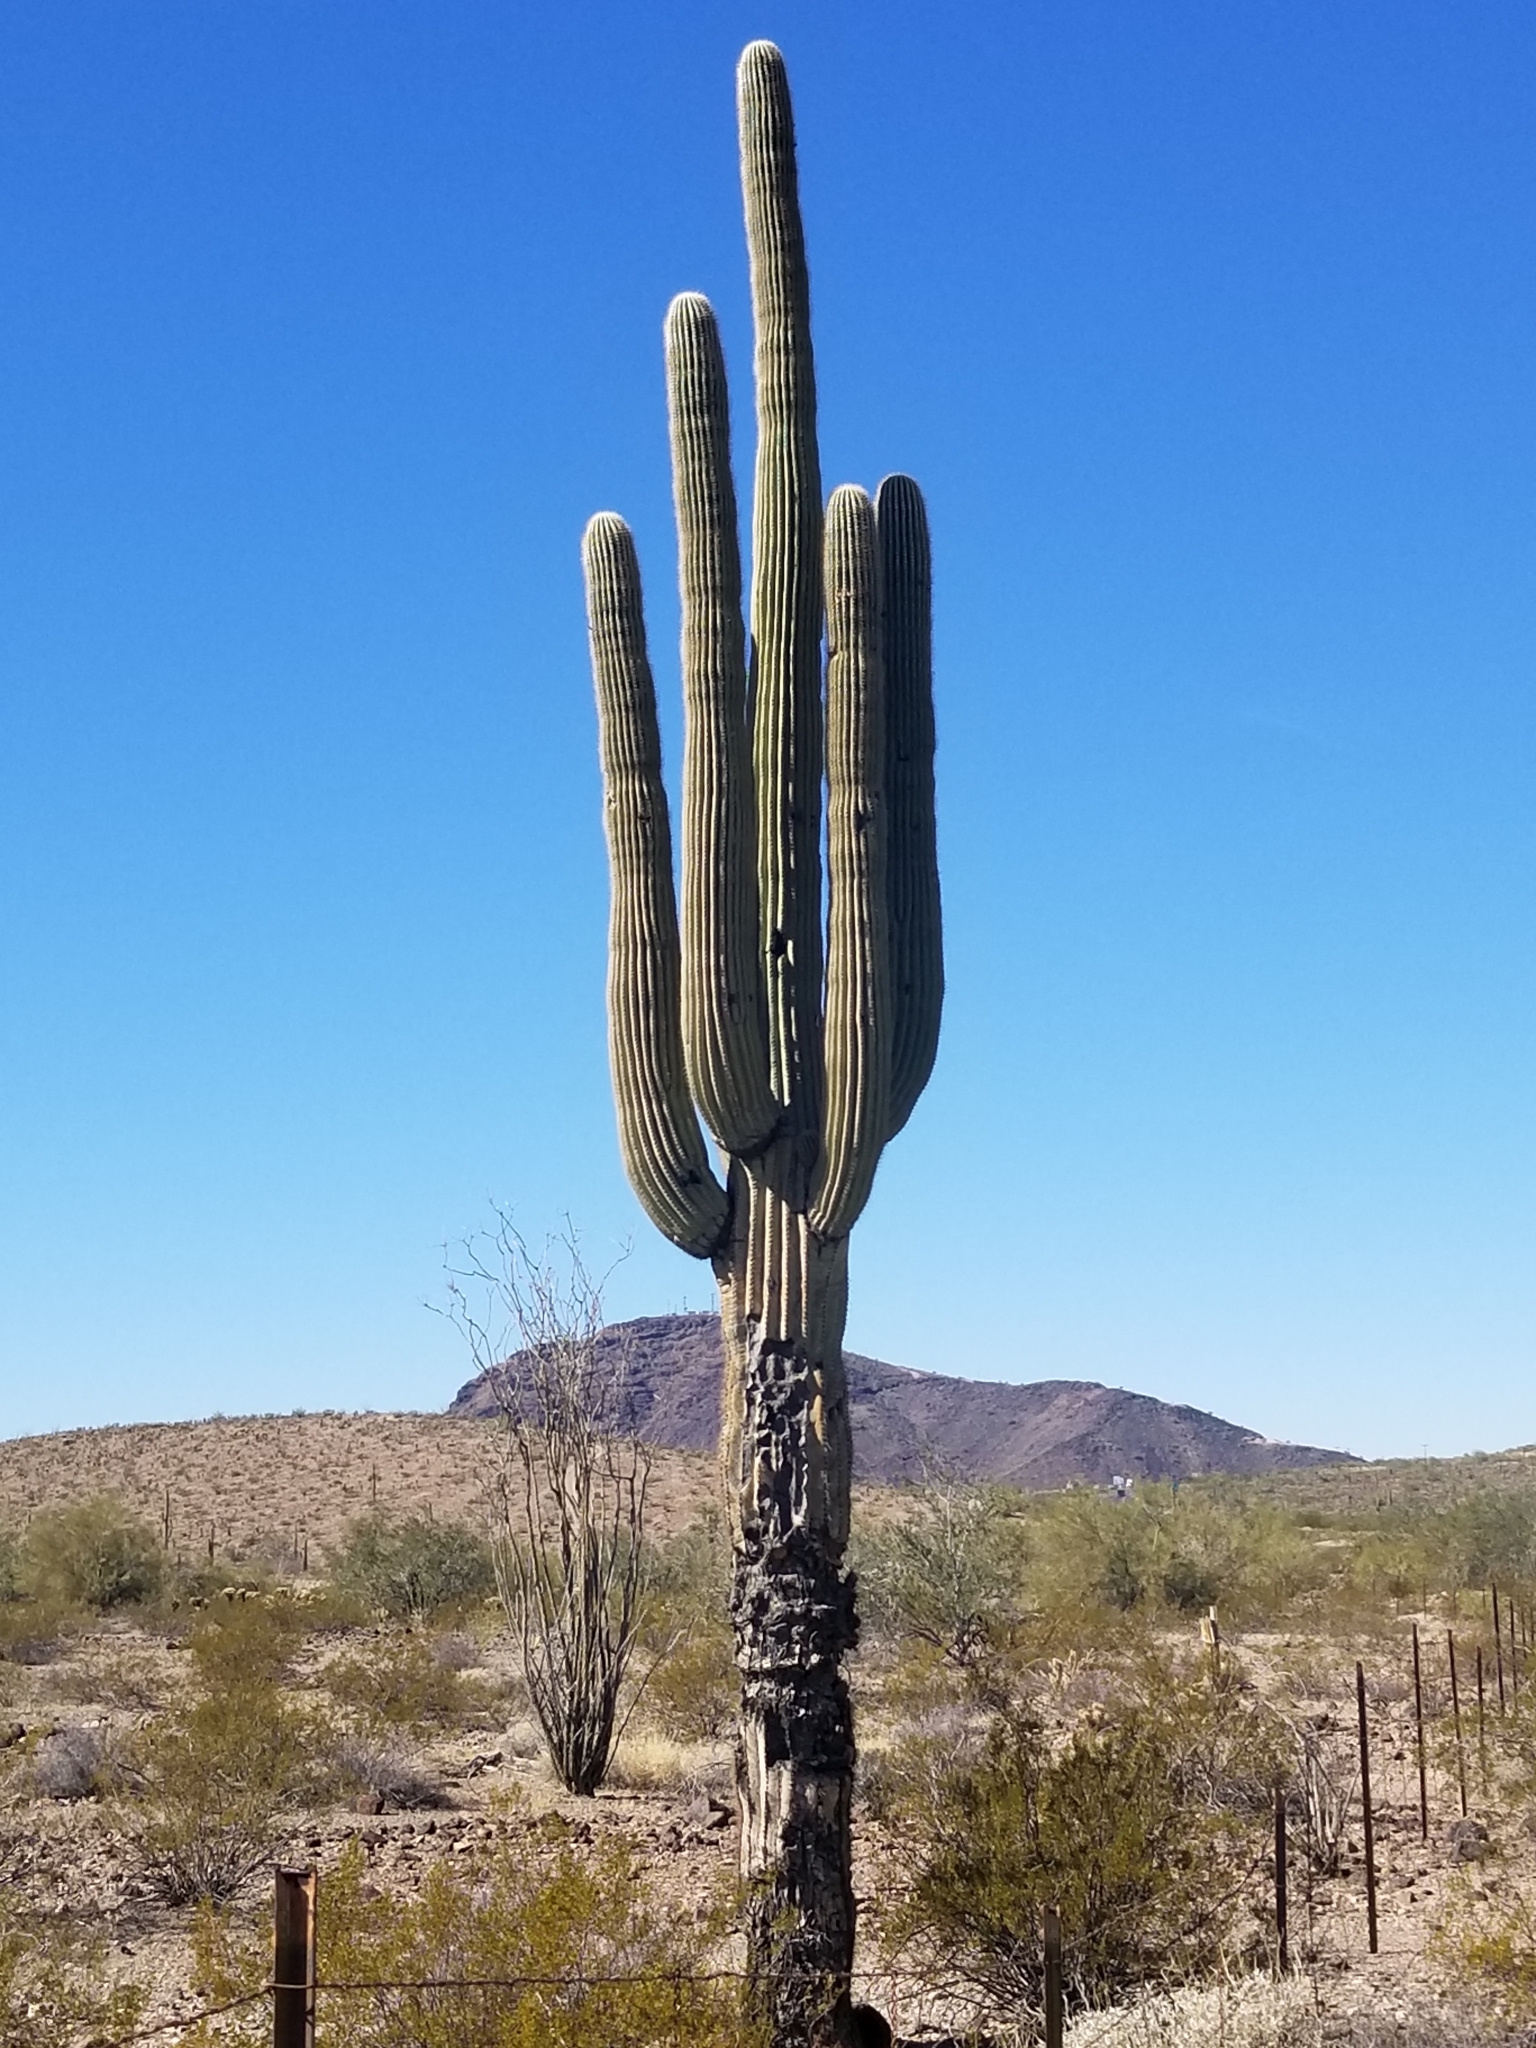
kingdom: Plantae
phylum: Tracheophyta
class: Magnoliopsida
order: Caryophyllales
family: Cactaceae
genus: Carnegiea
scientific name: Carnegiea gigantea
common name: Saguaro
